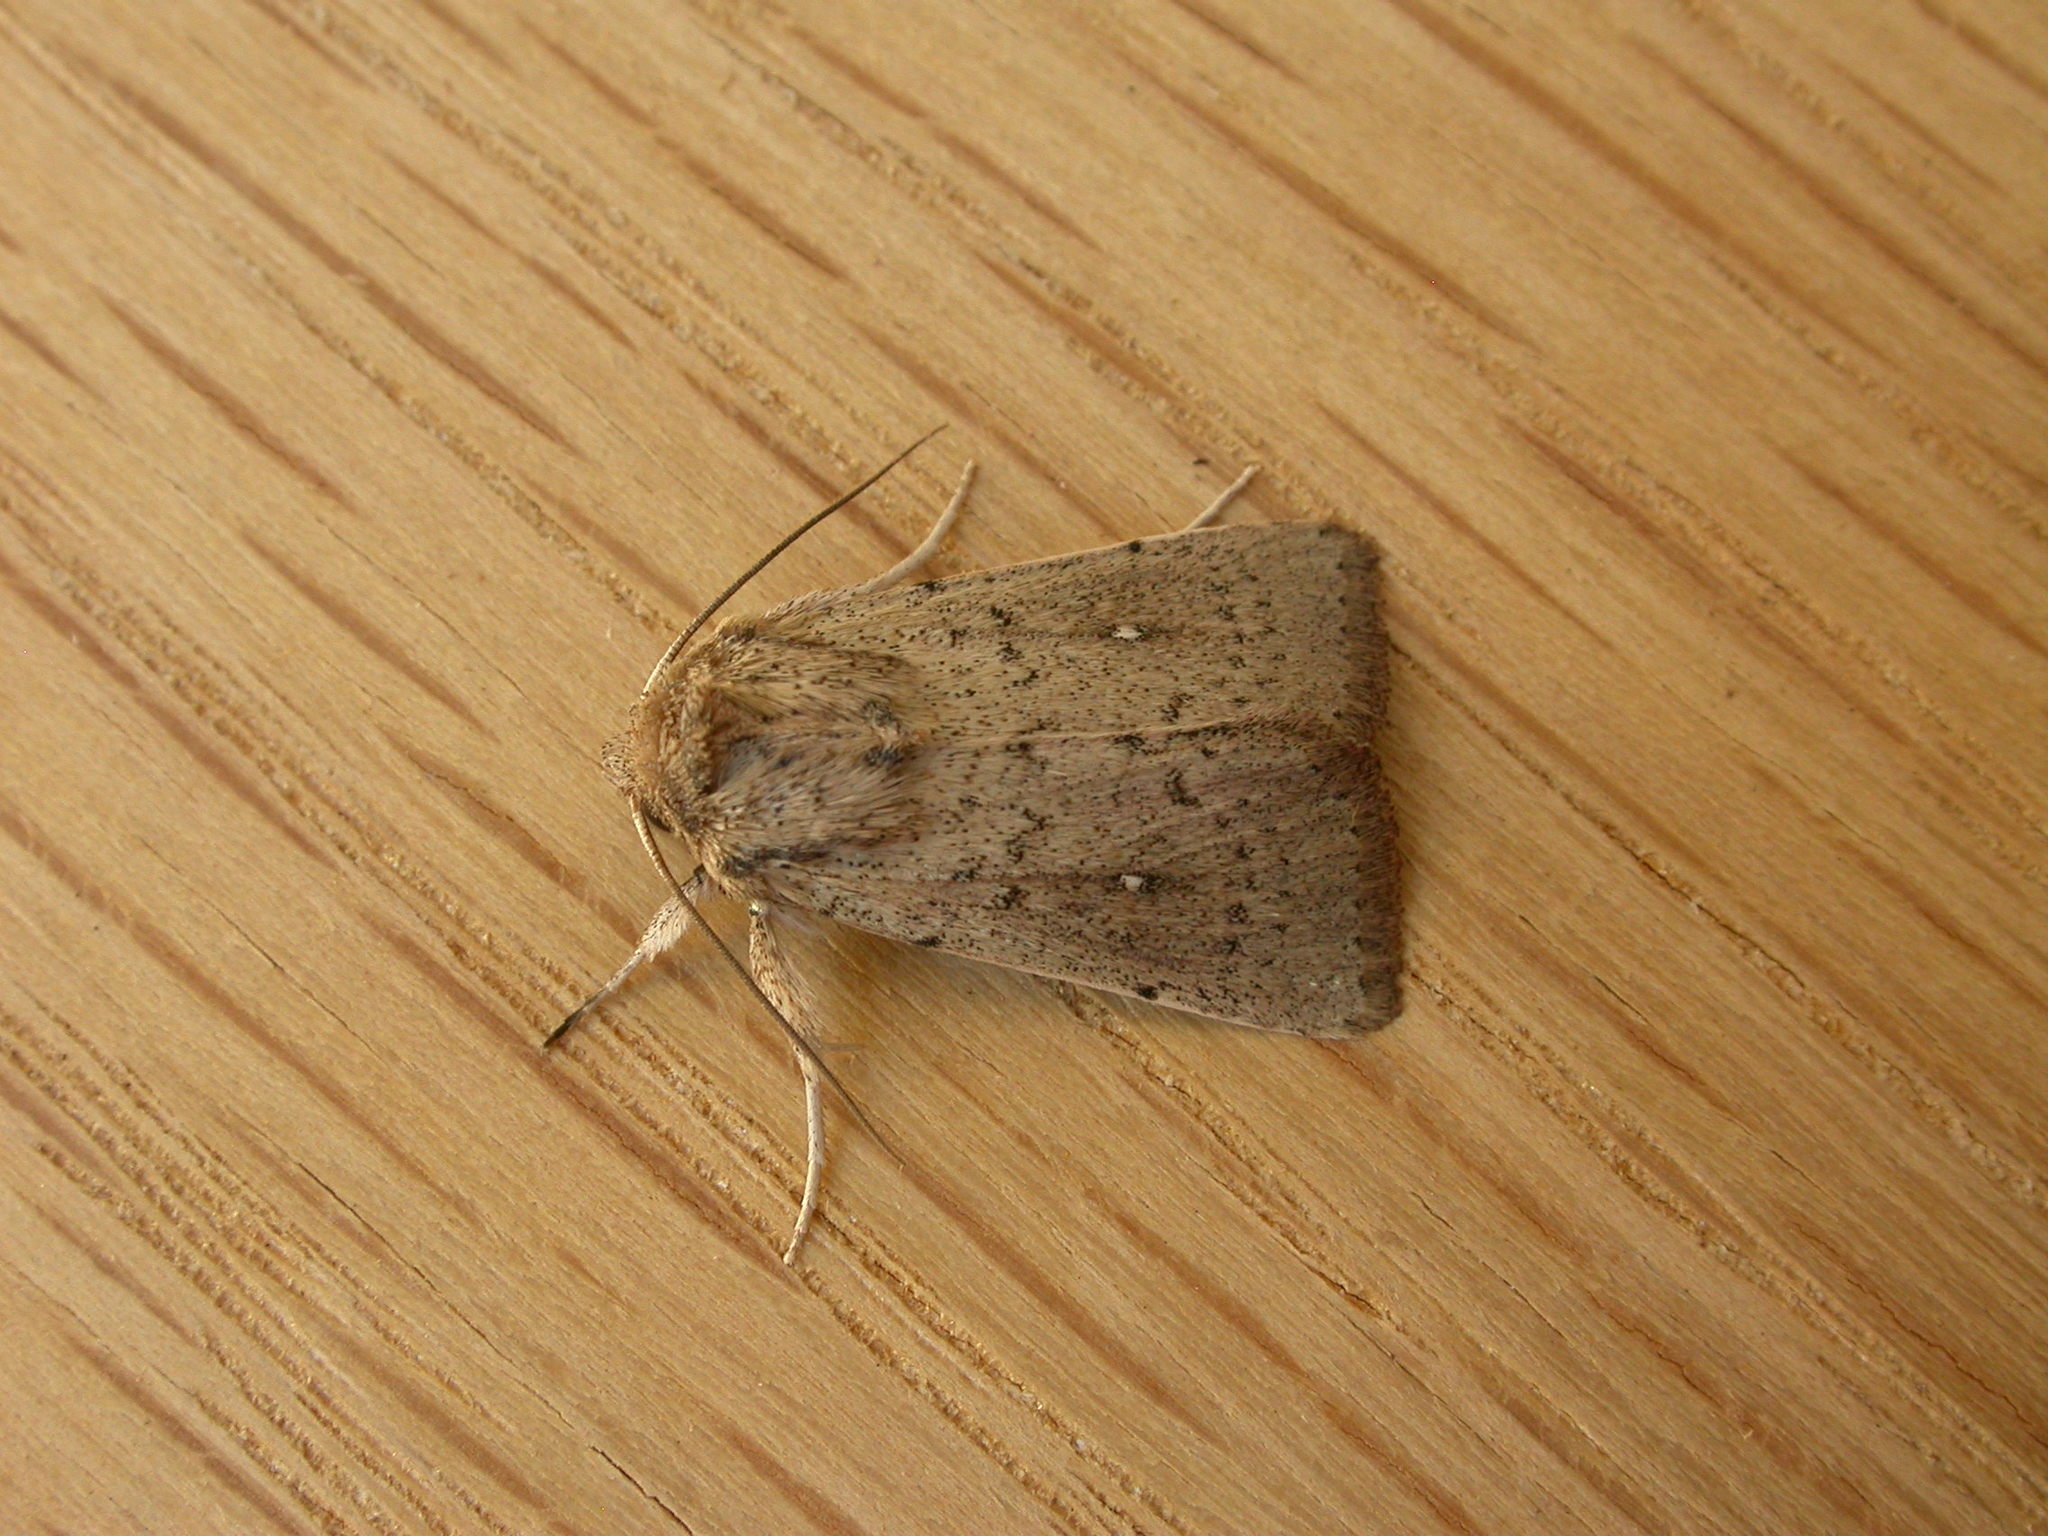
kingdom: Animalia
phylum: Arthropoda
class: Insecta
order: Lepidoptera
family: Noctuidae
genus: Leucania
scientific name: Leucania uda
